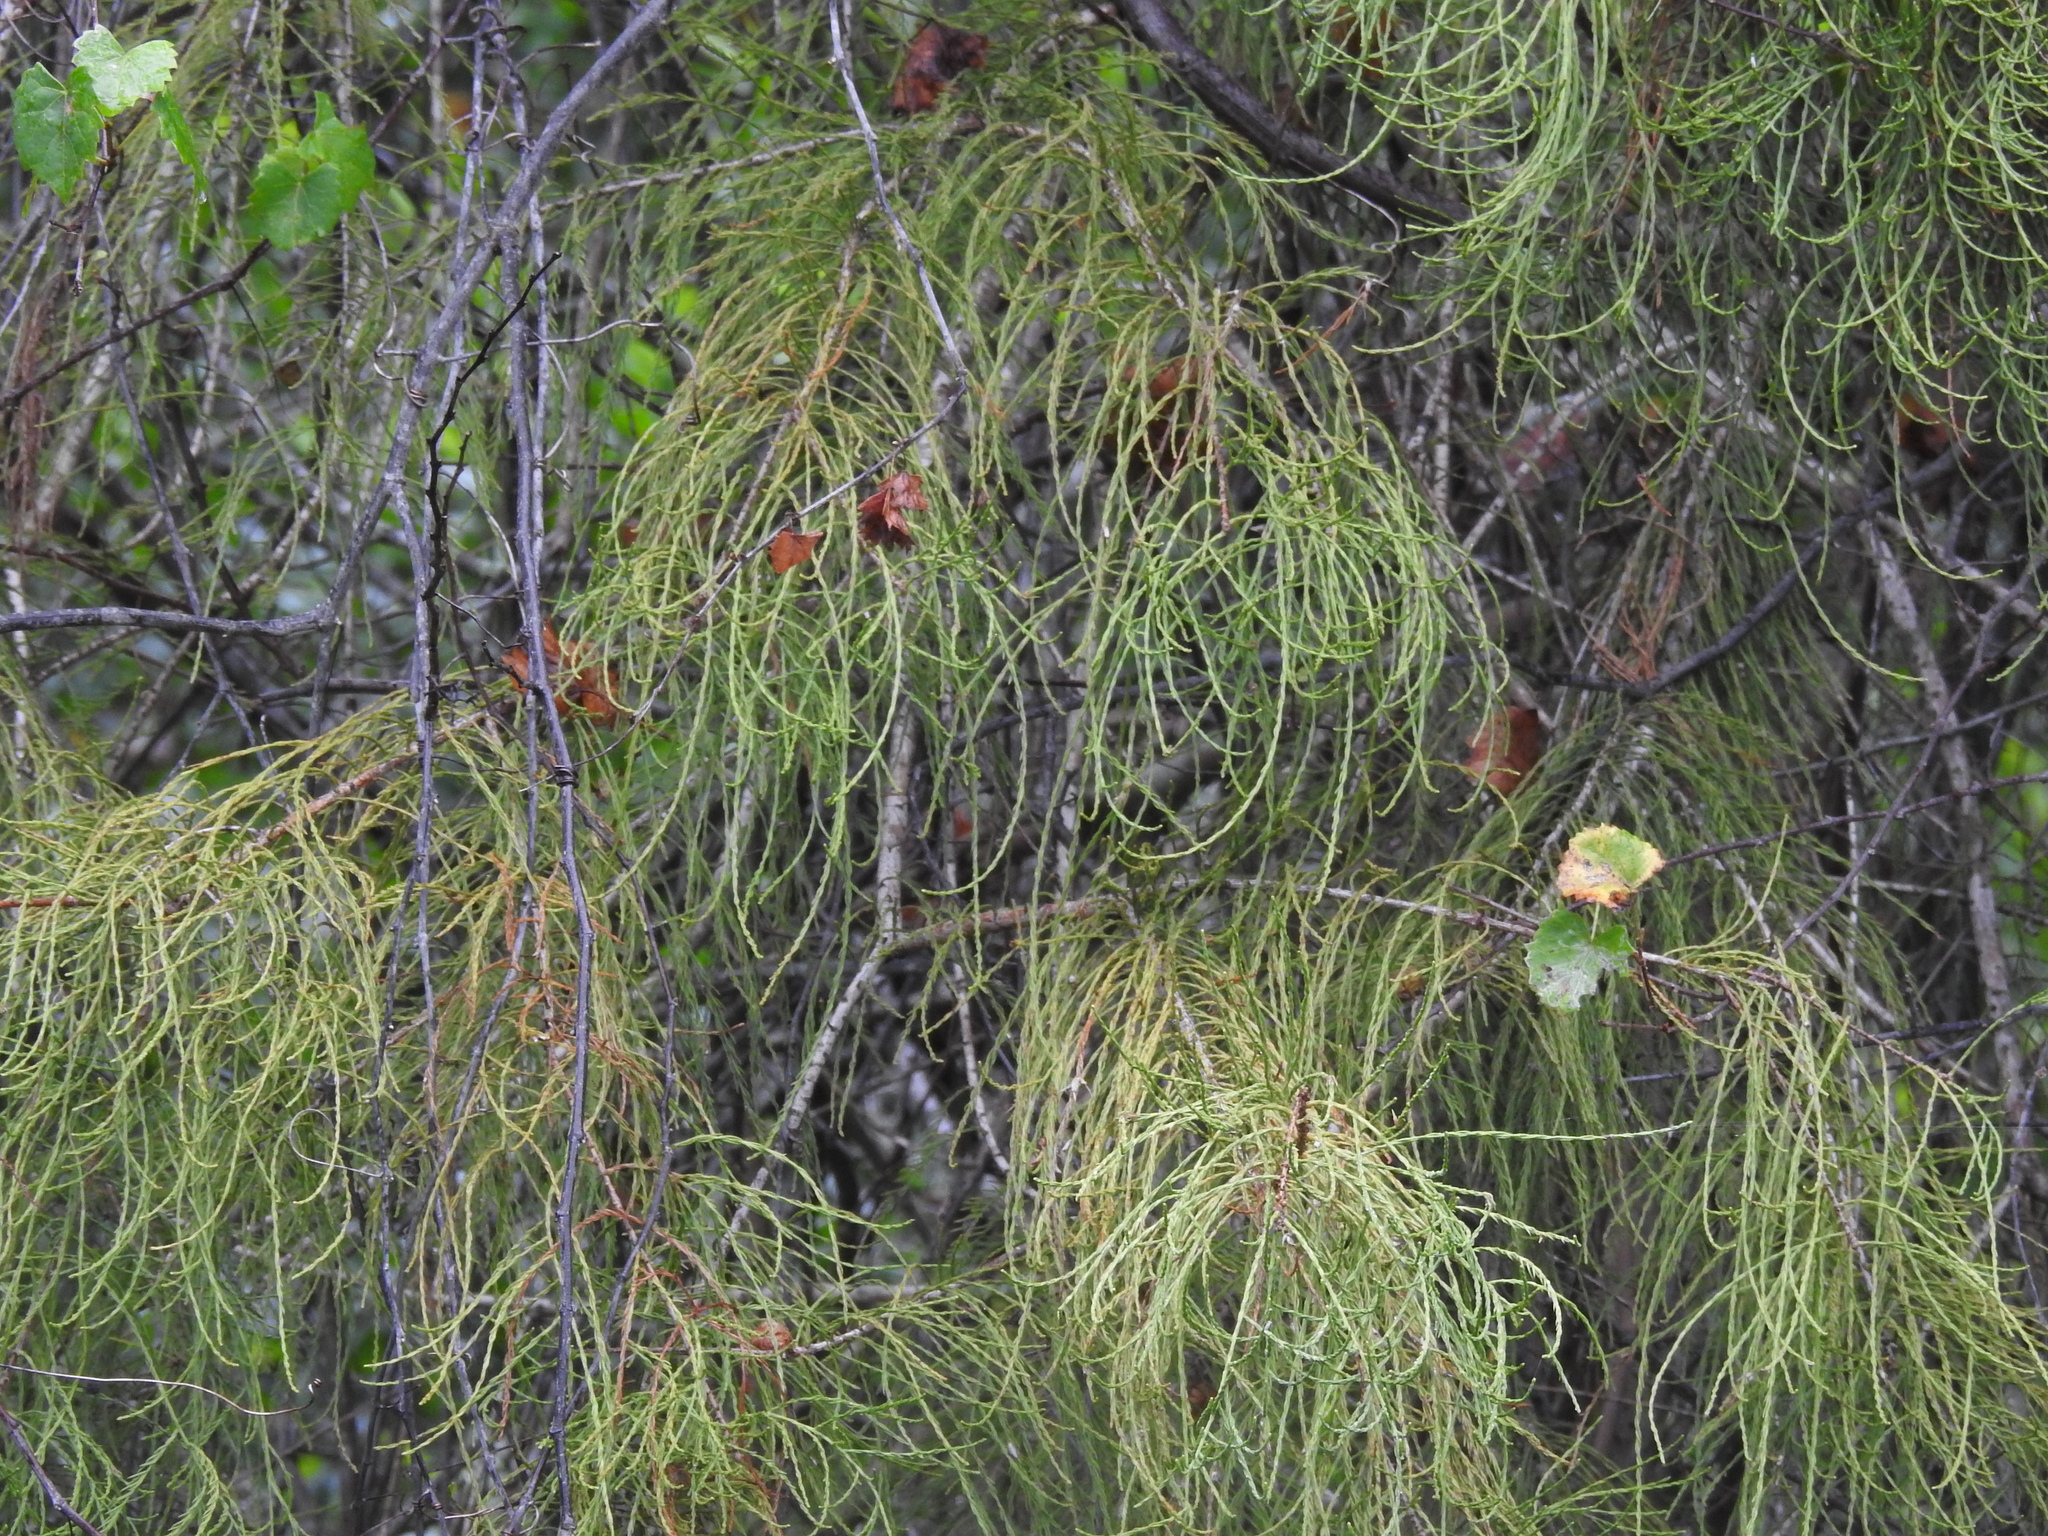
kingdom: Plantae
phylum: Tracheophyta
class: Pinopsida
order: Pinales
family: Cupressaceae
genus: Taxodium
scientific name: Taxodium distichum
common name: Bald cypress
